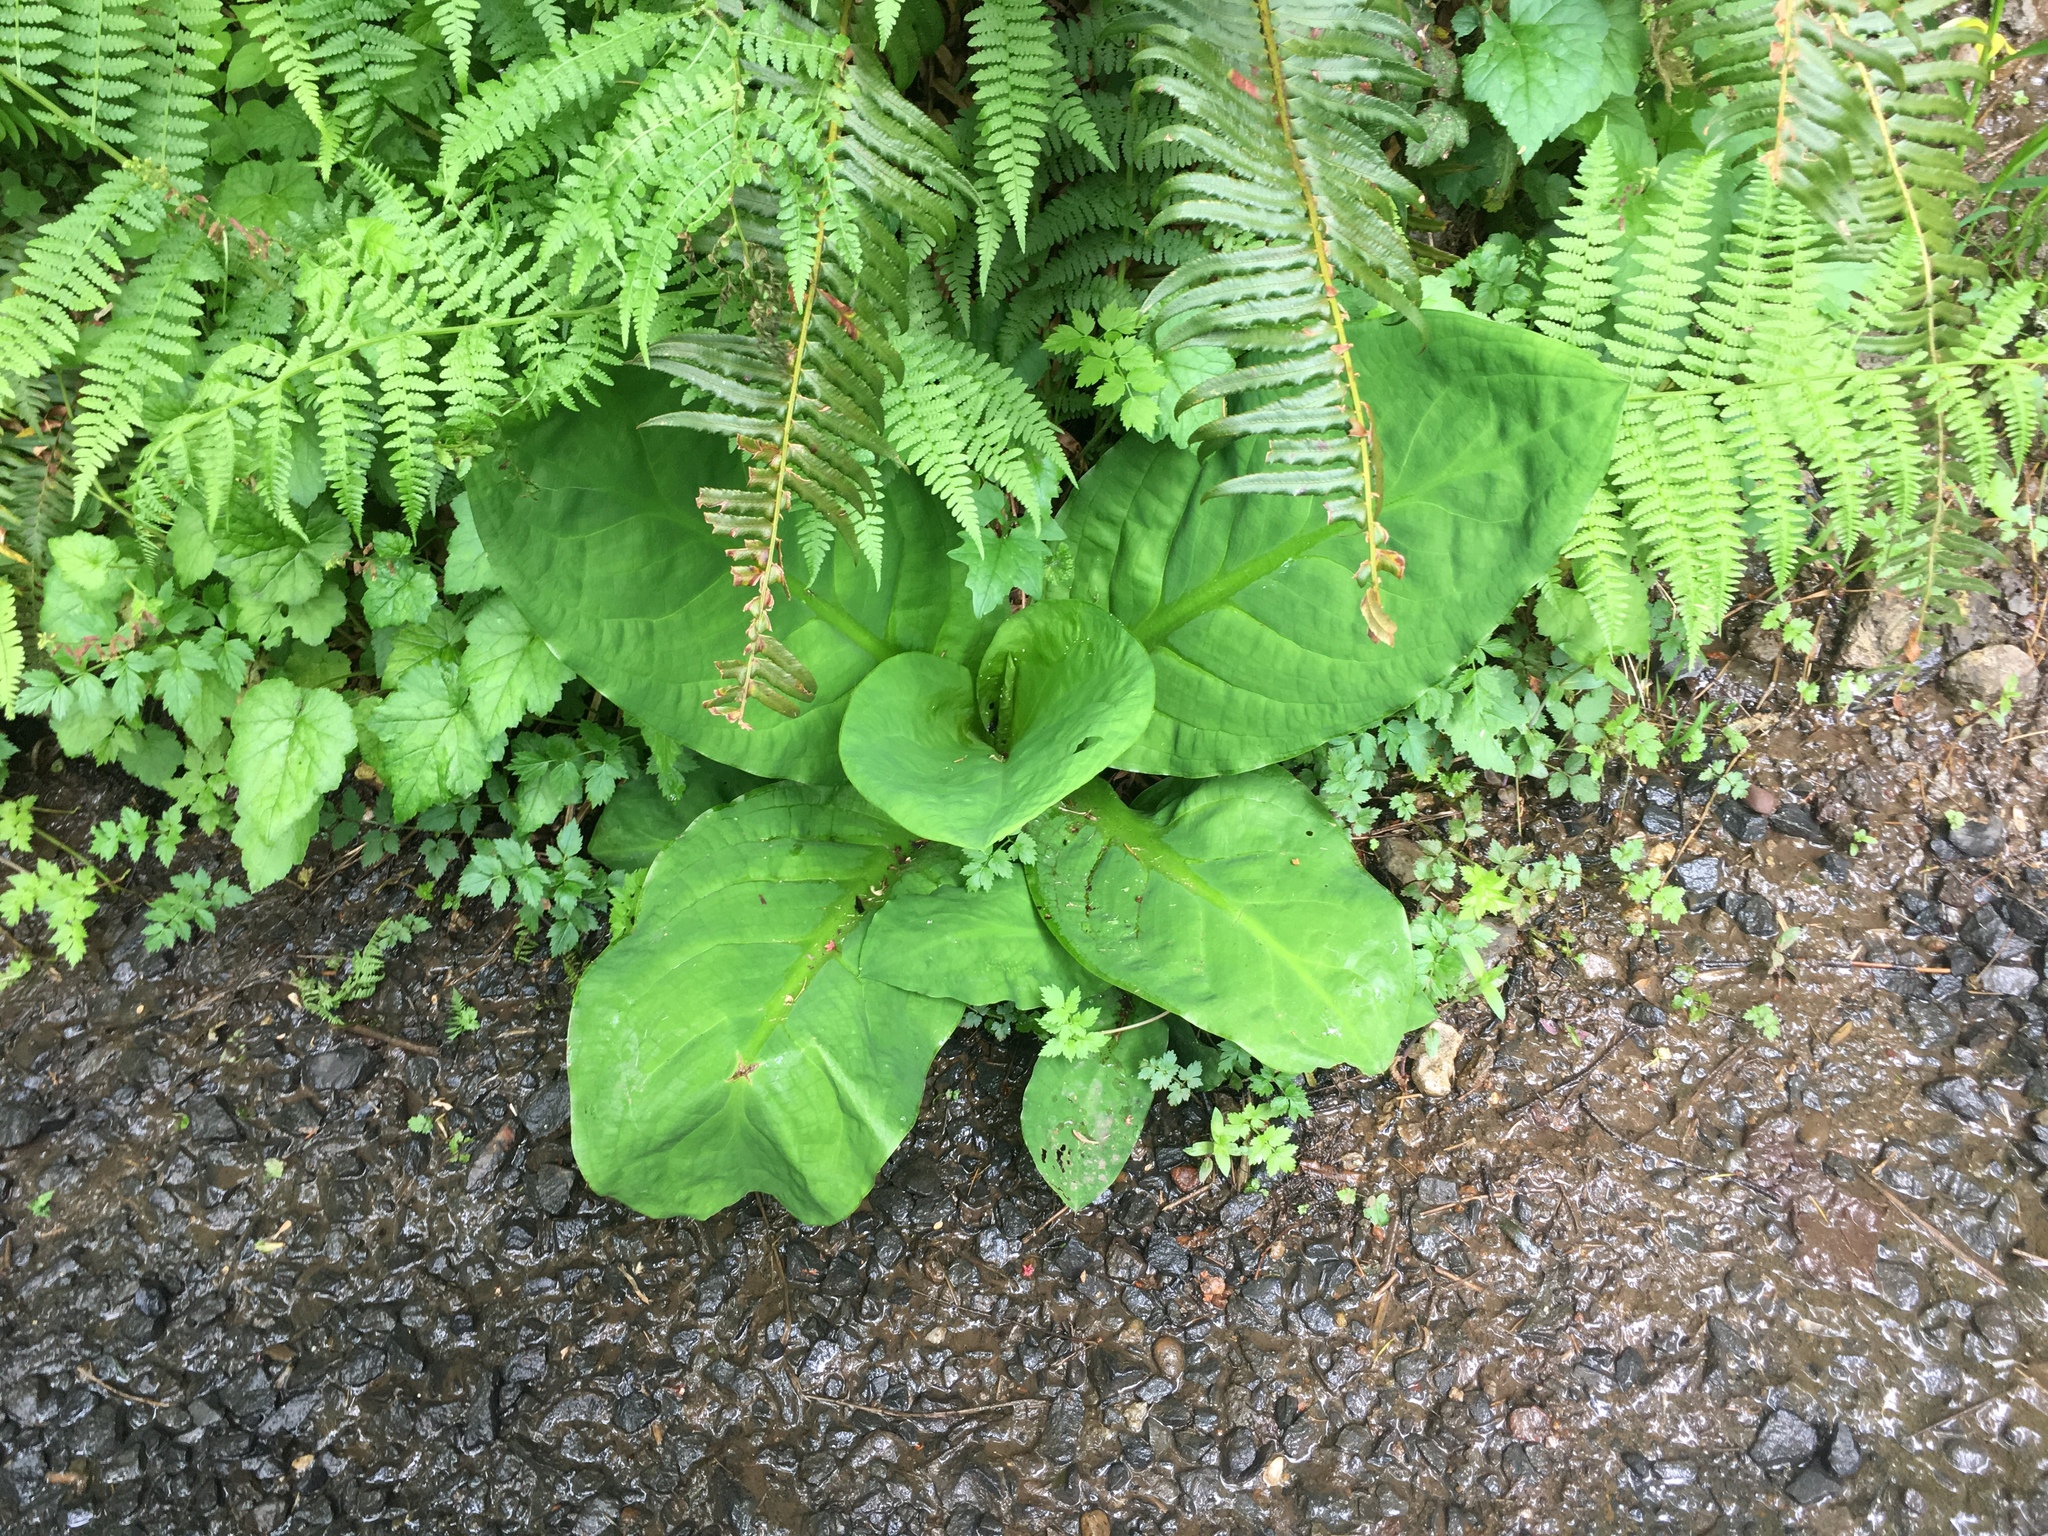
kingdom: Plantae
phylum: Tracheophyta
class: Liliopsida
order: Alismatales
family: Araceae
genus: Lysichiton
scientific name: Lysichiton americanus
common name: American skunk cabbage
